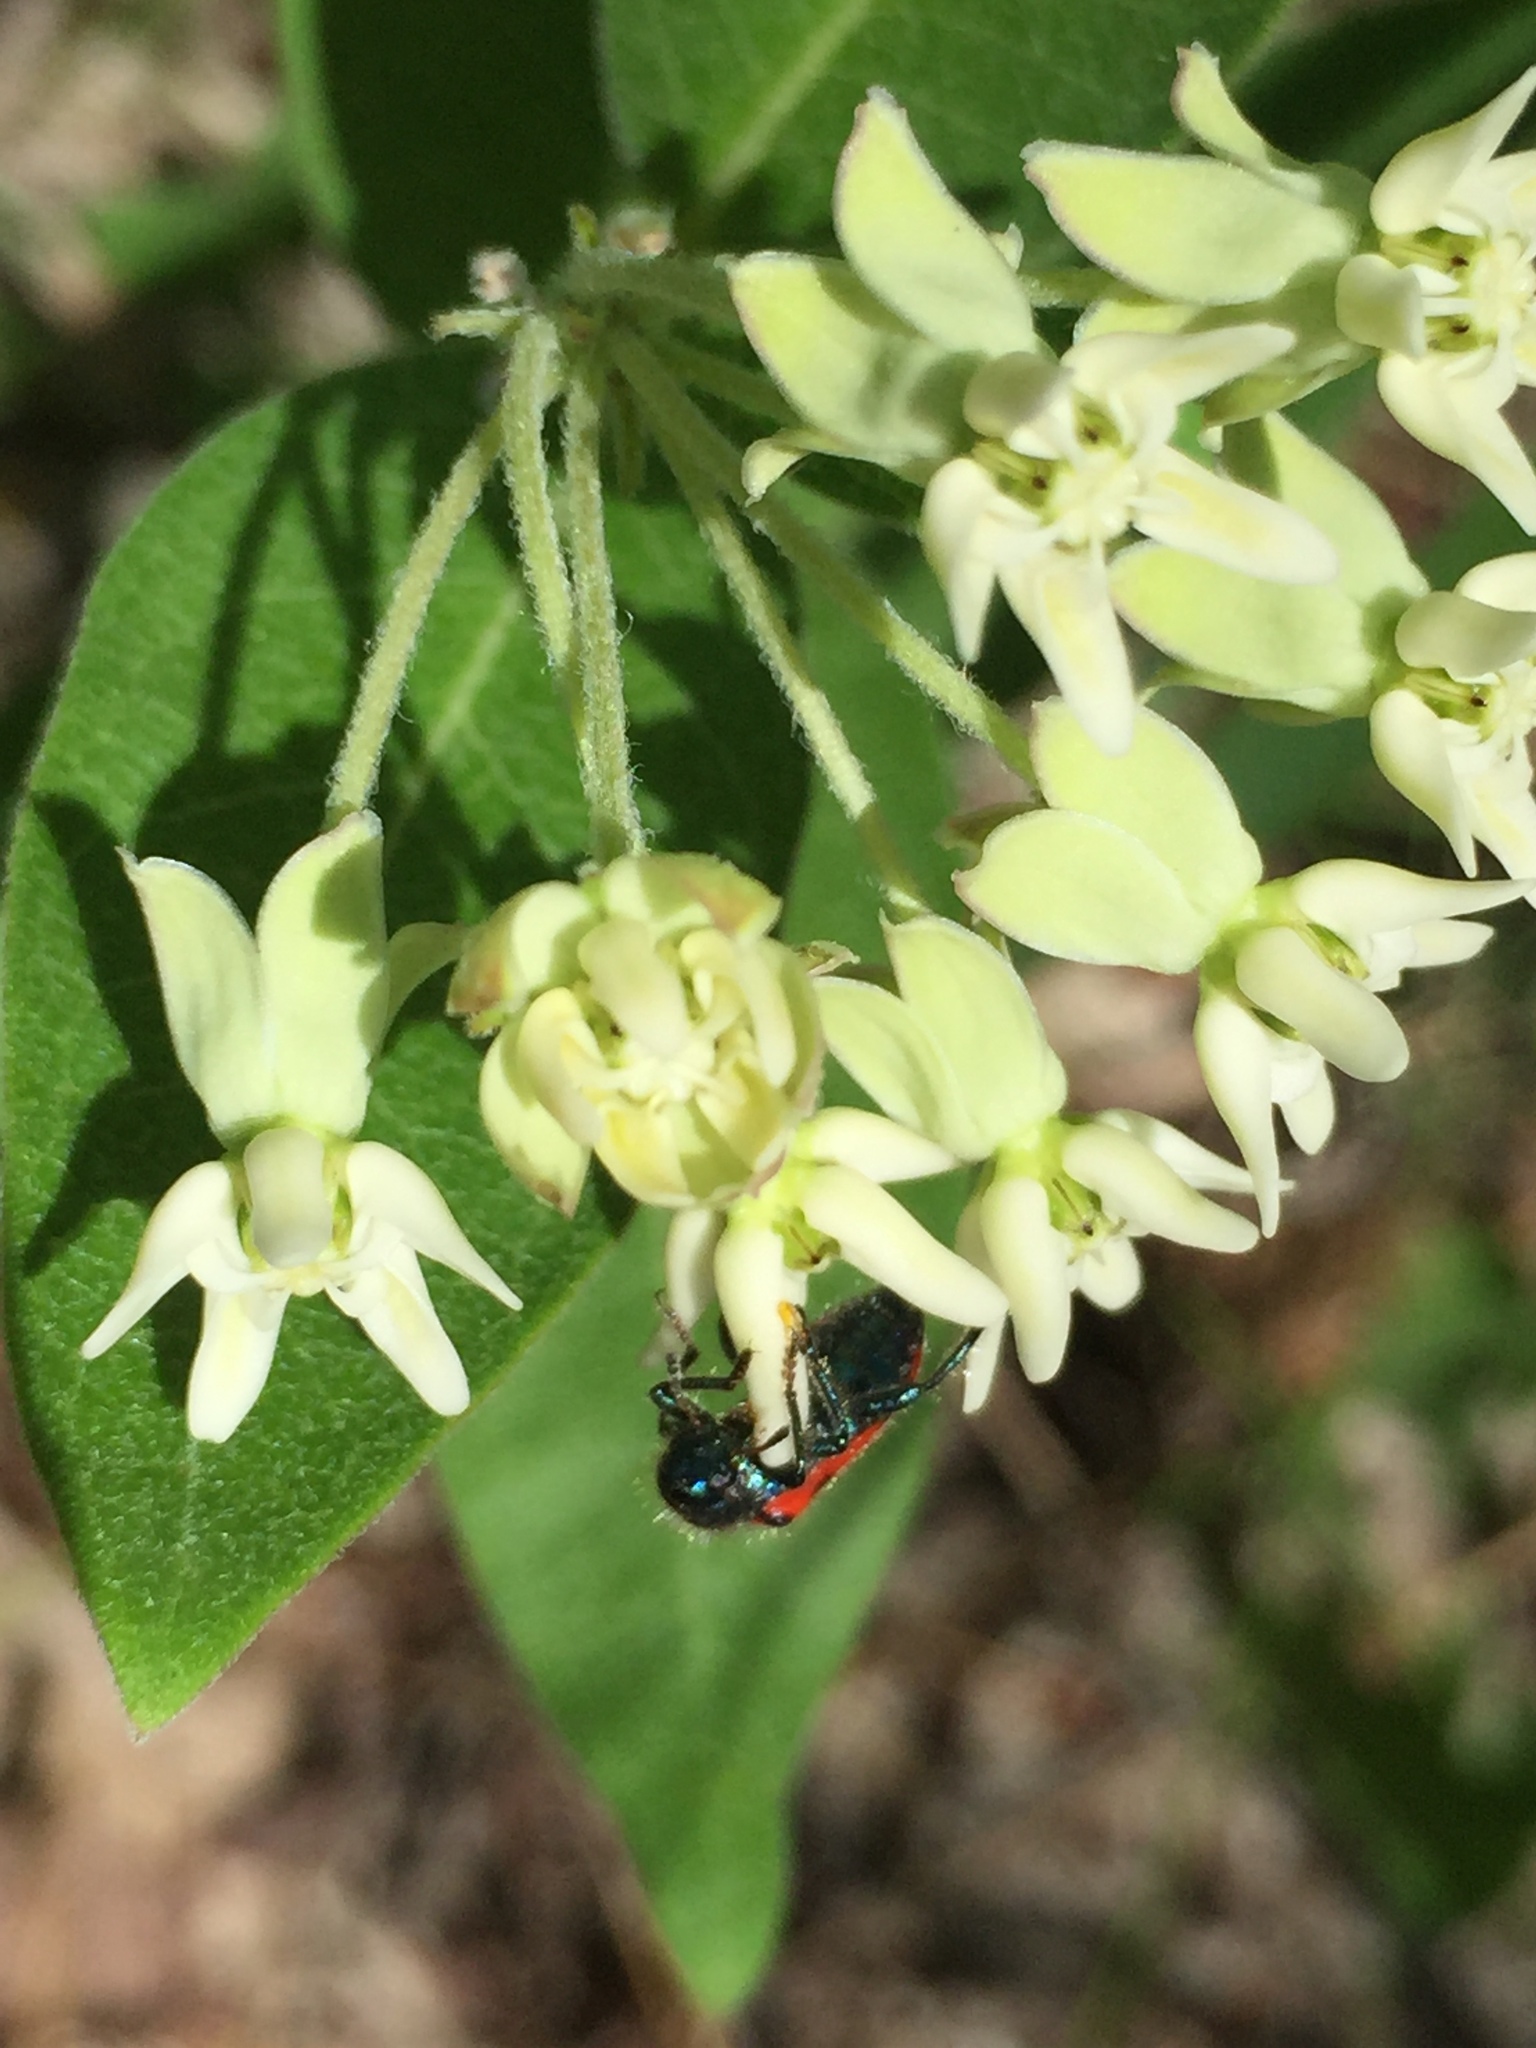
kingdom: Plantae
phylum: Tracheophyta
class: Magnoliopsida
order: Gentianales
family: Apocynaceae
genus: Asclepias
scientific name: Asclepias ovalifolia
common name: Dwarf milkweed
